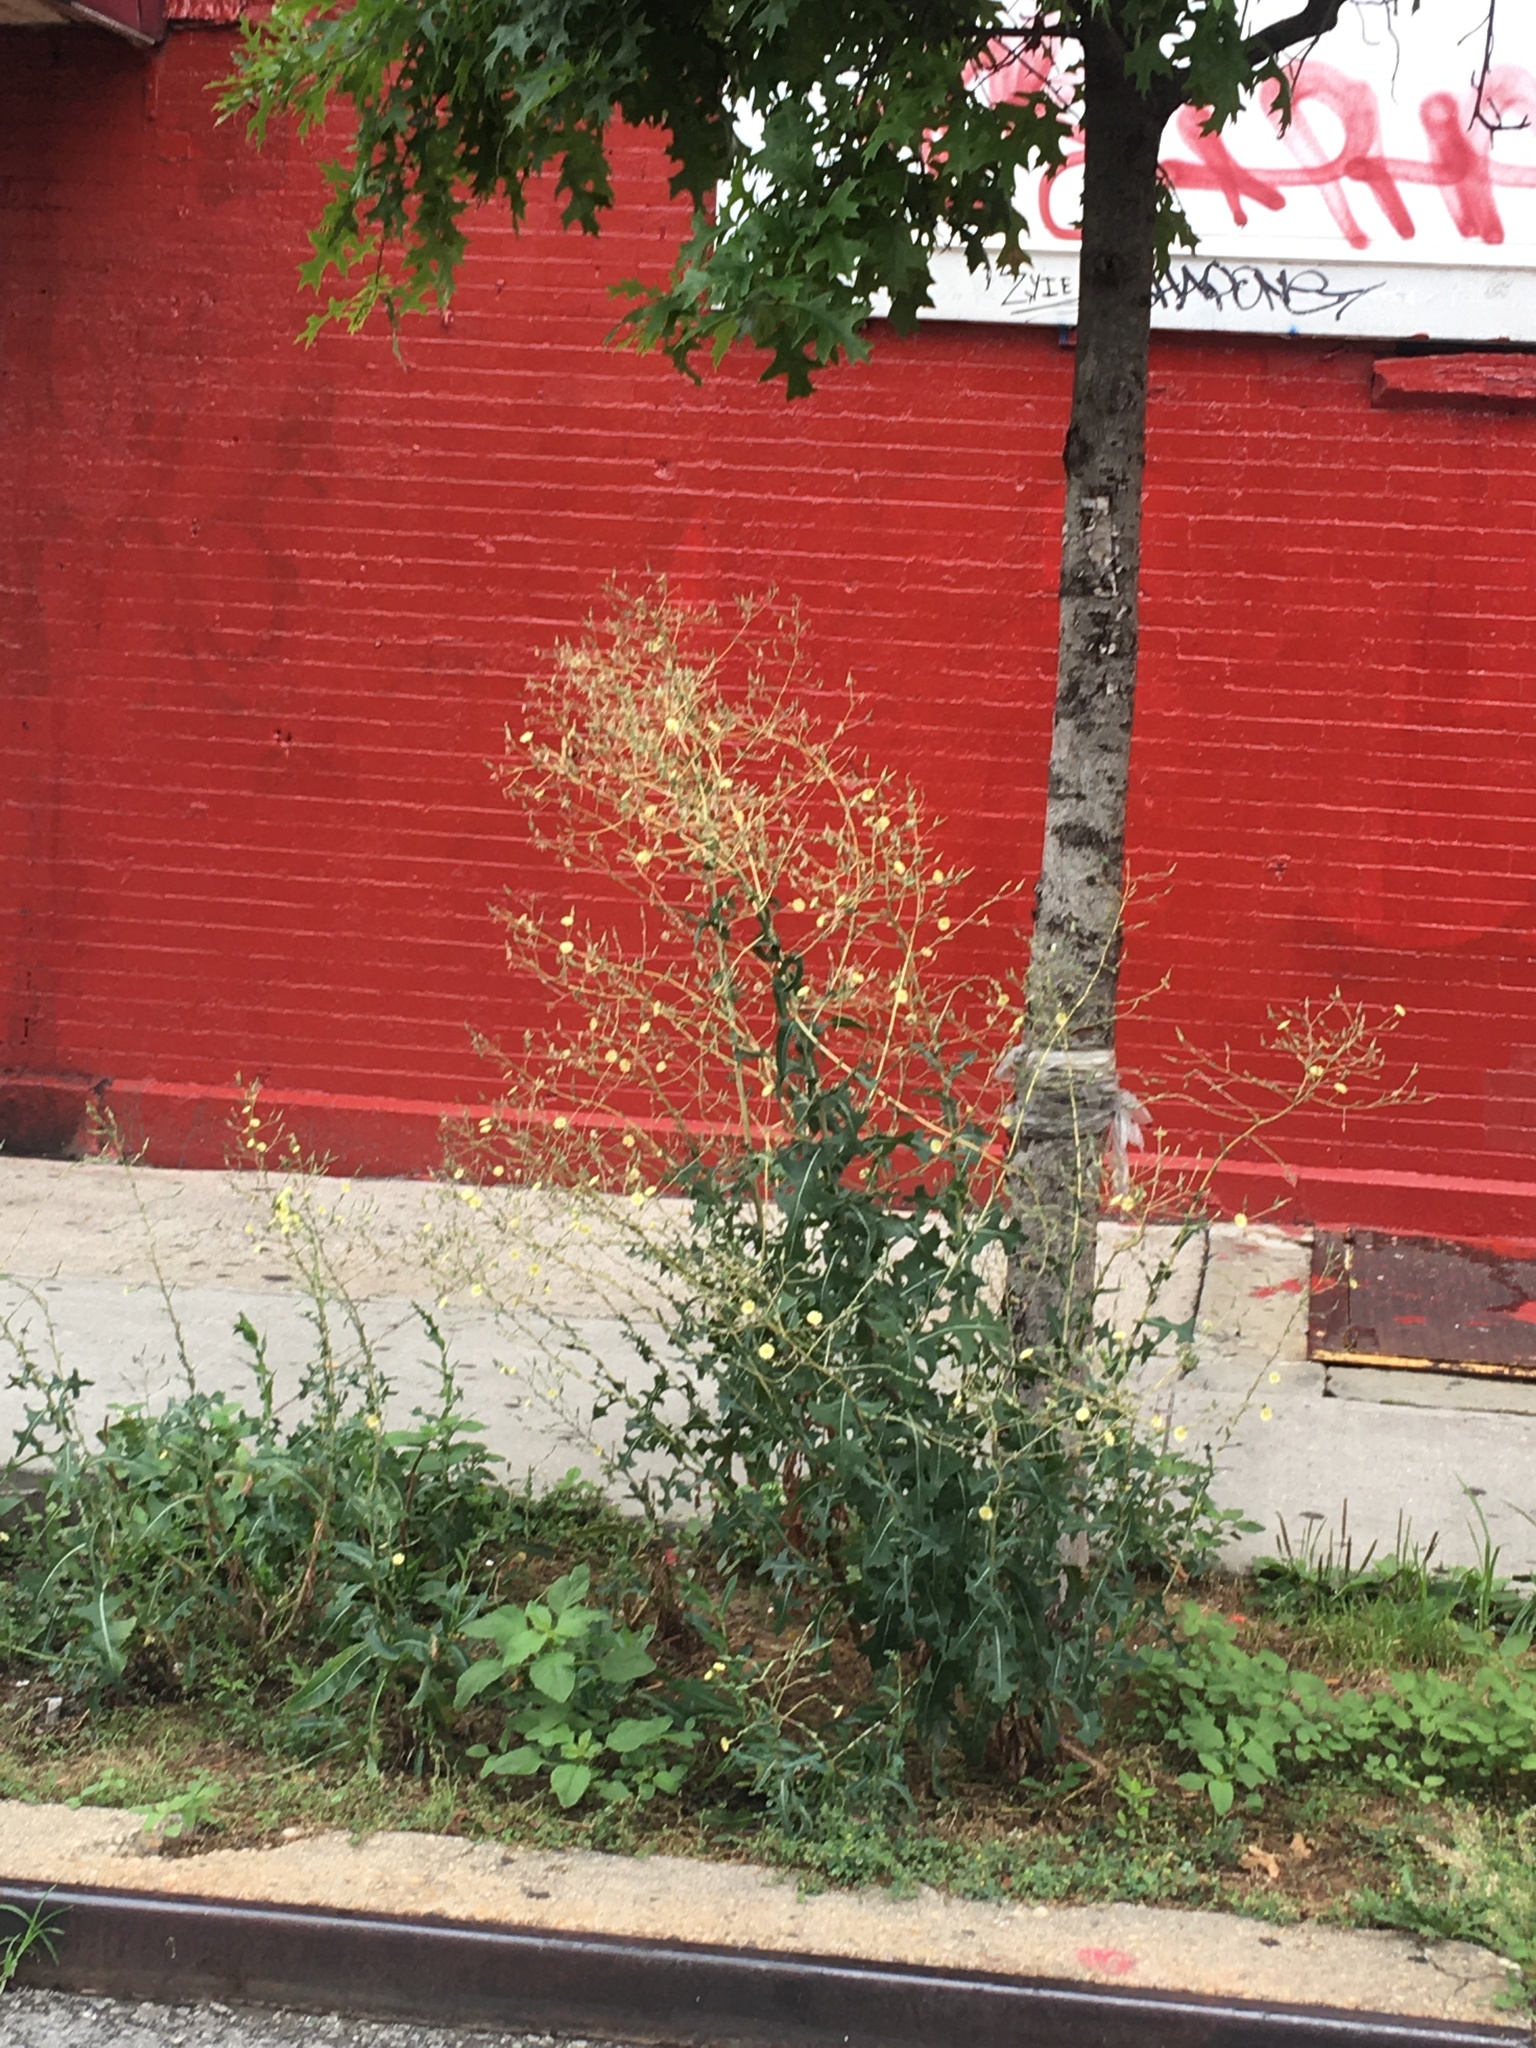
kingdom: Plantae
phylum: Tracheophyta
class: Magnoliopsida
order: Asterales
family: Asteraceae
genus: Lactuca
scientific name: Lactuca serriola
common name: Prickly lettuce
